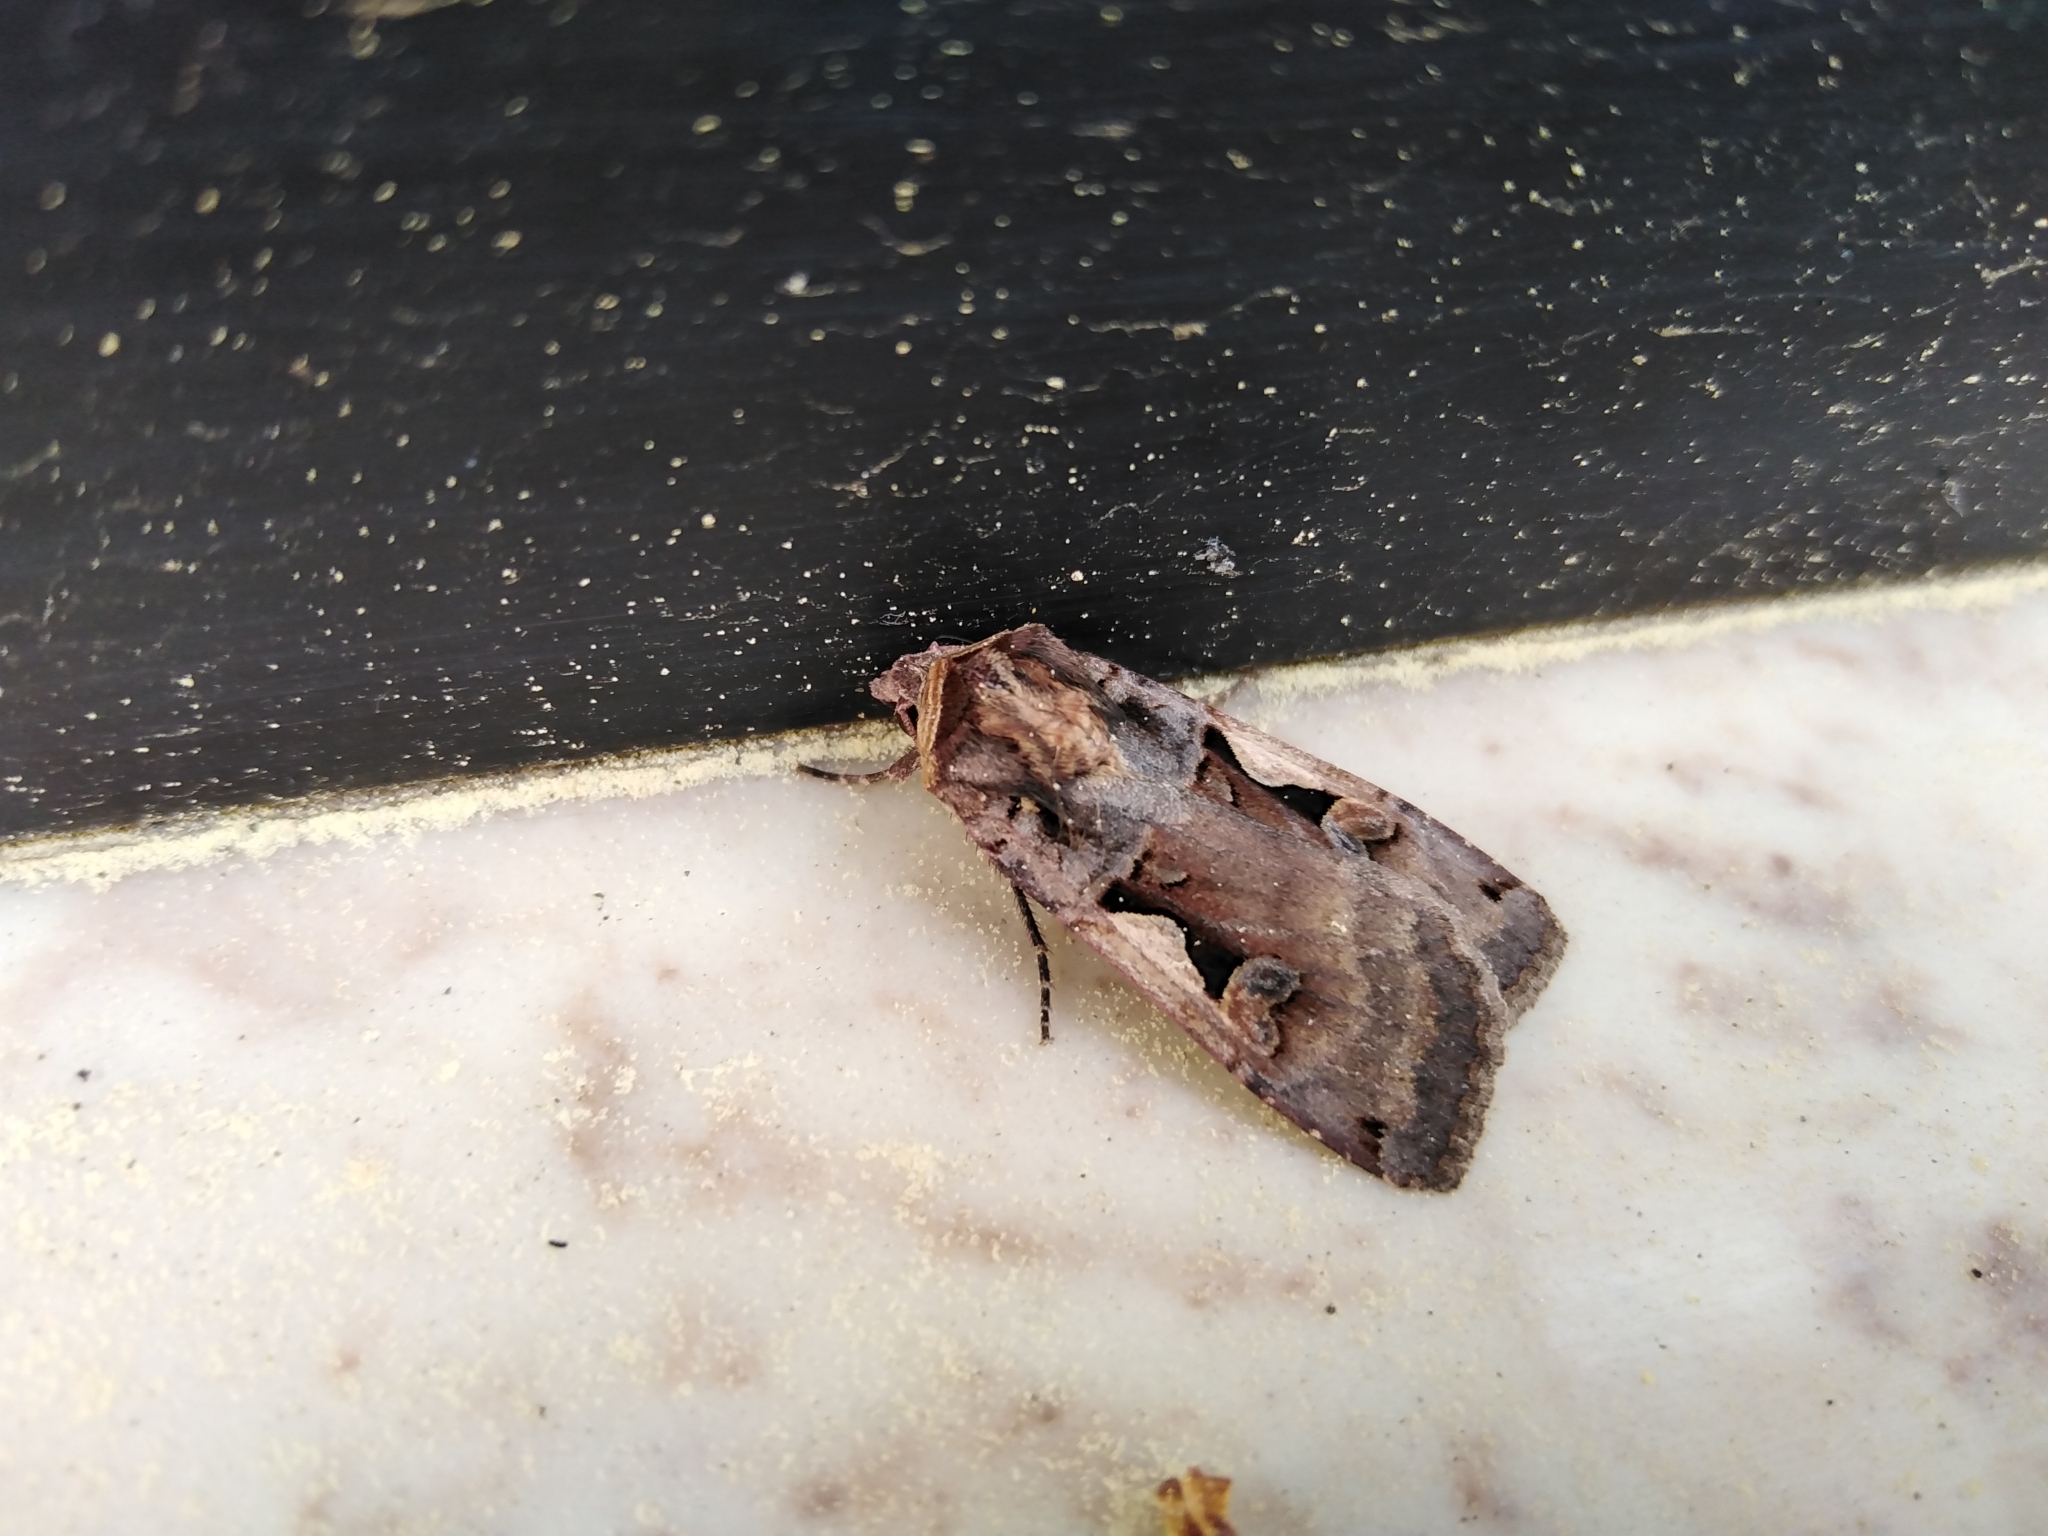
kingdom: Animalia
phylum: Arthropoda
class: Insecta
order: Lepidoptera
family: Noctuidae
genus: Xestia
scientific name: Xestia c-nigrum
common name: Setaceous hebrew character
